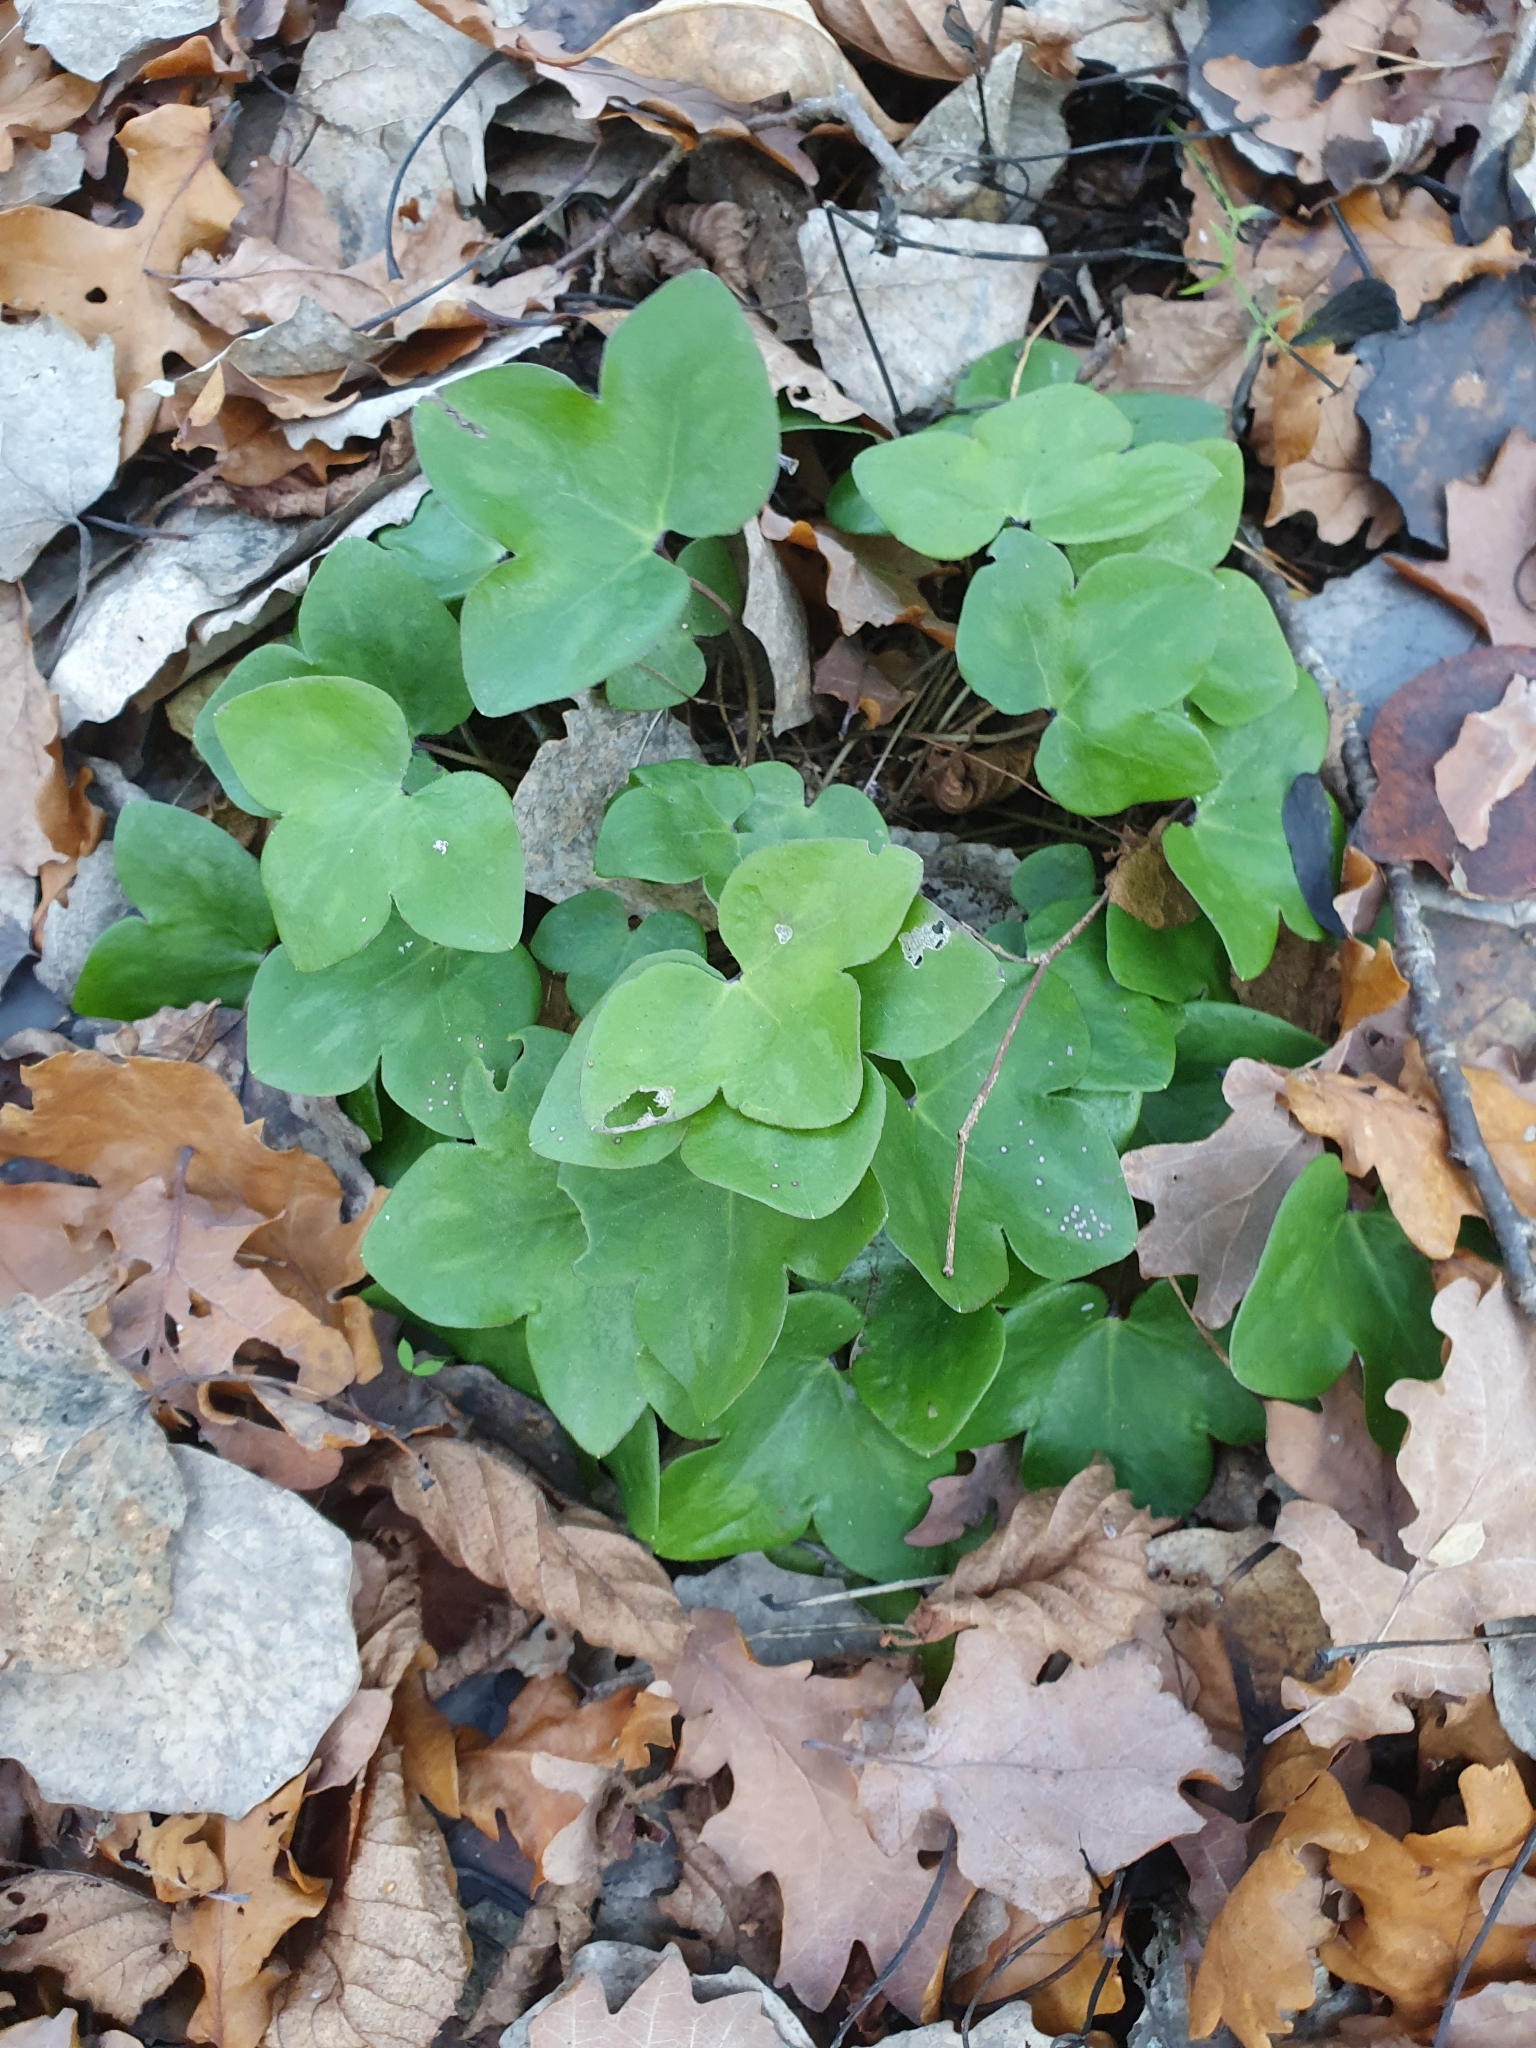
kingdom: Plantae
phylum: Tracheophyta
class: Magnoliopsida
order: Ranunculales
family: Ranunculaceae
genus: Hepatica
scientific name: Hepatica nobilis
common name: Liverleaf
